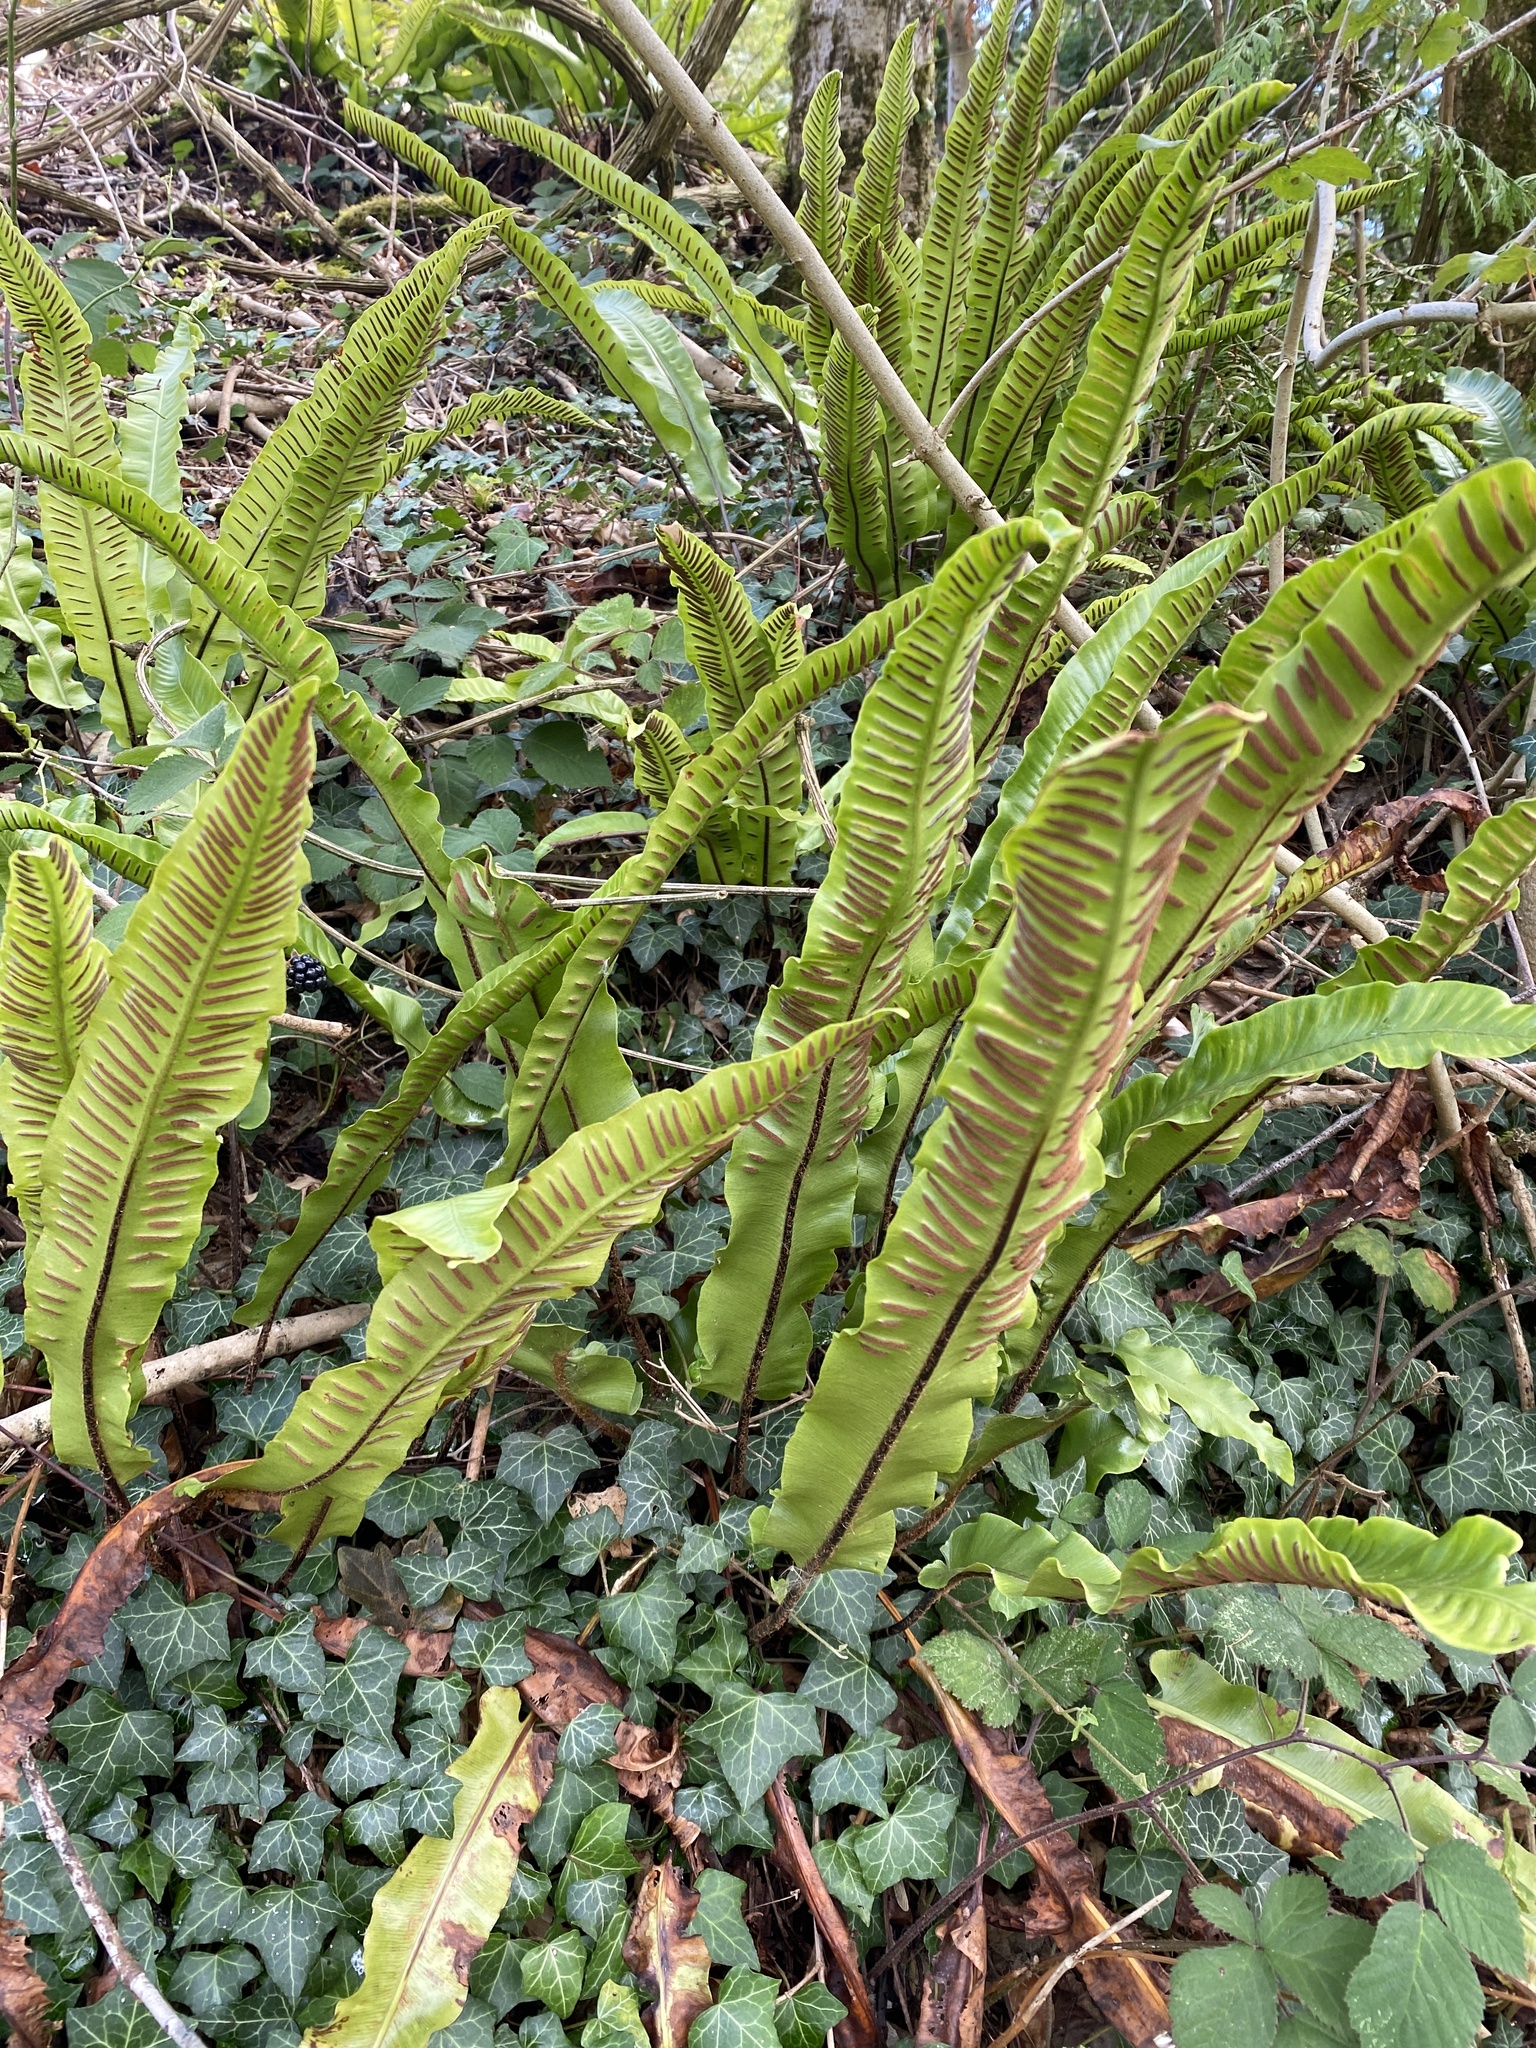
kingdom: Plantae
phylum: Tracheophyta
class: Polypodiopsida
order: Polypodiales
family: Aspleniaceae
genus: Asplenium
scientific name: Asplenium scolopendrium
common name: Hart's-tongue fern
